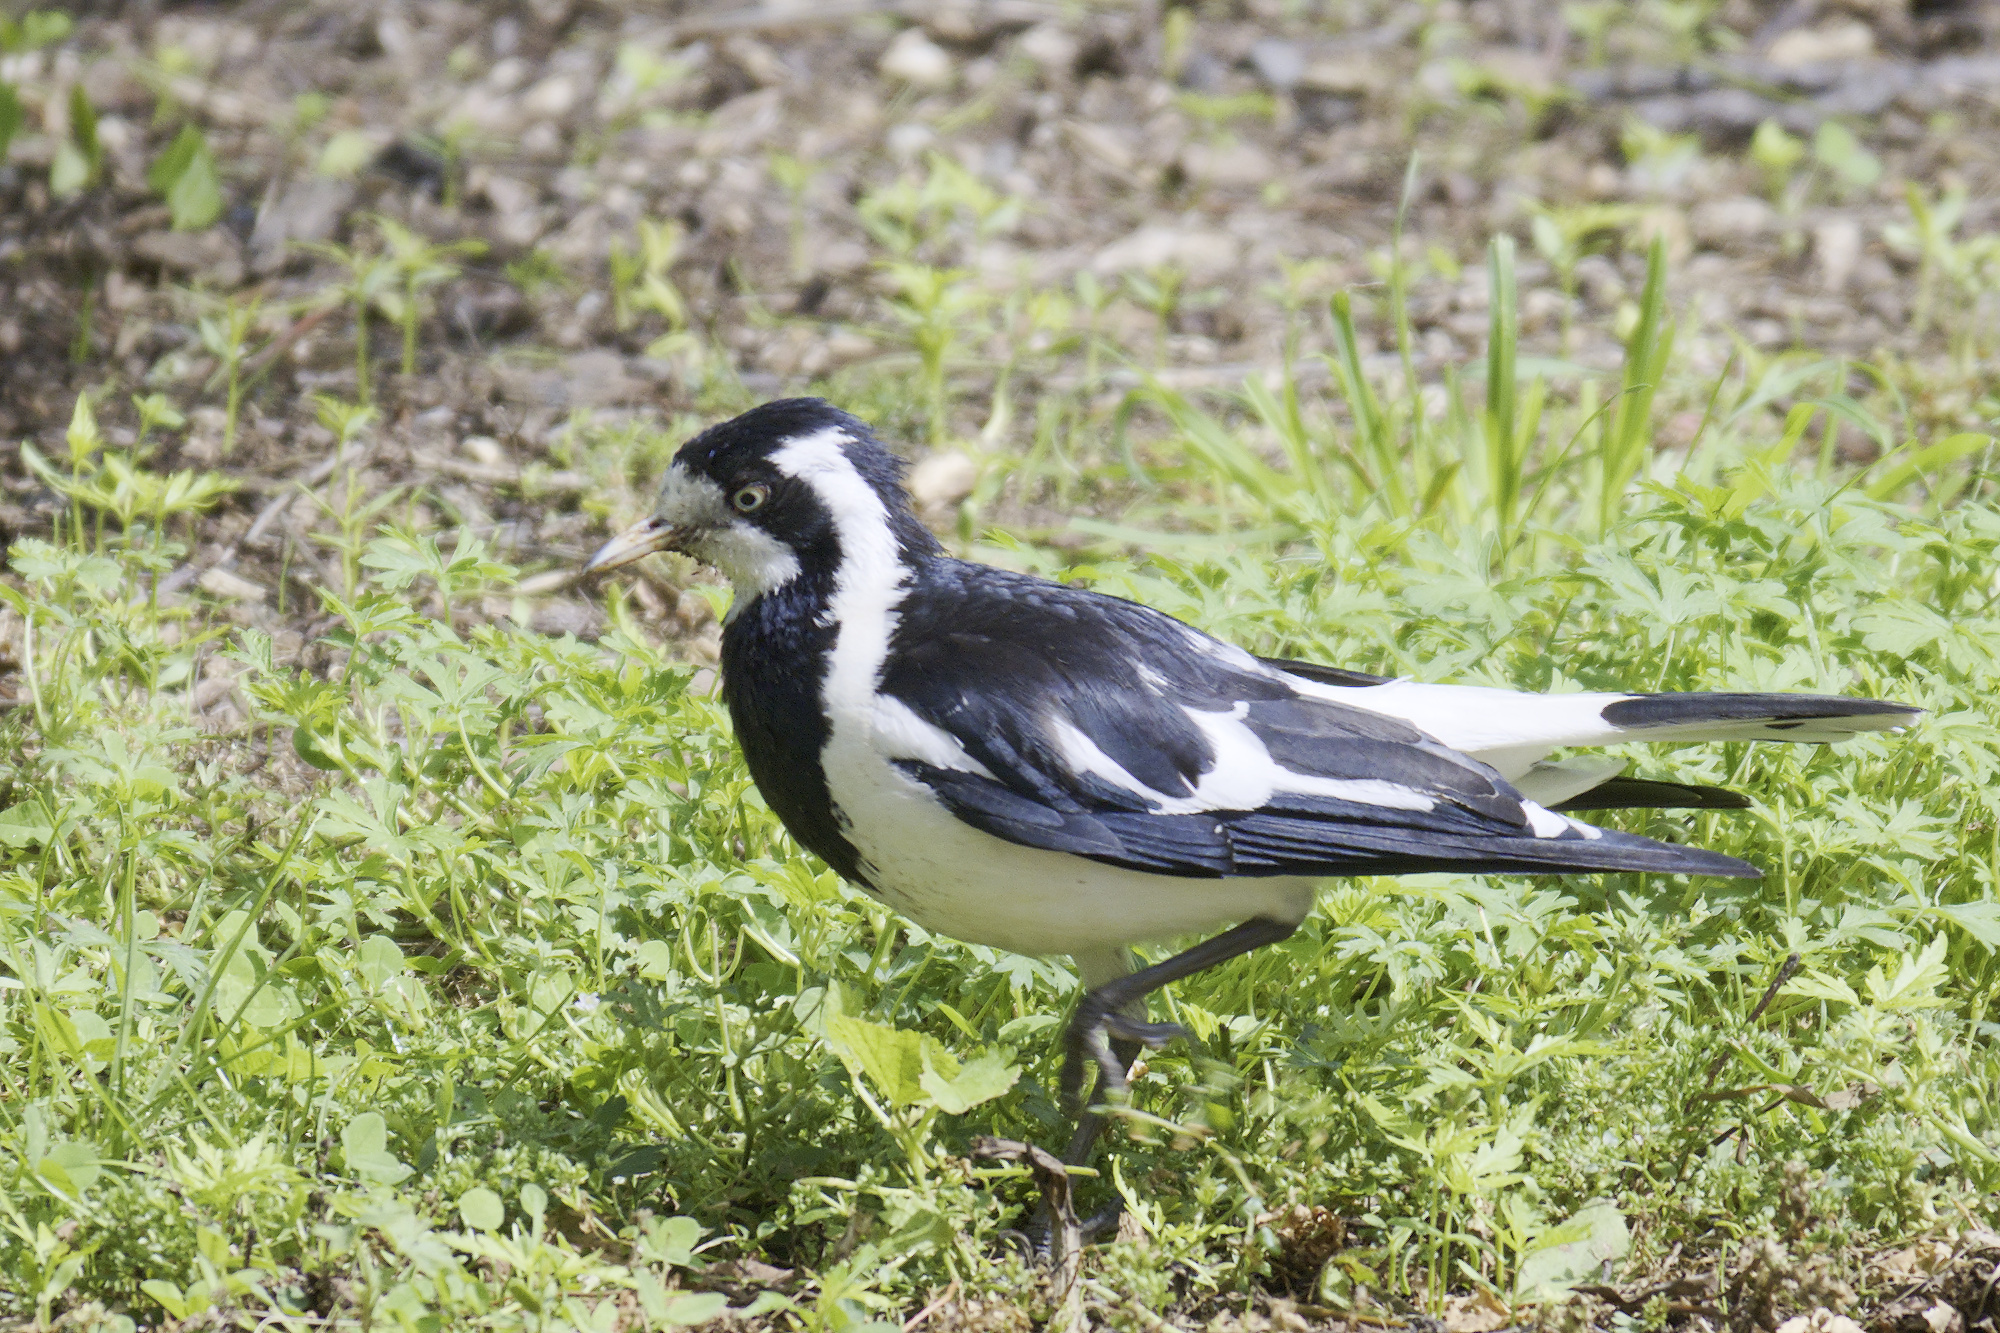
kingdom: Animalia
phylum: Chordata
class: Aves
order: Passeriformes
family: Monarchidae
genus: Grallina
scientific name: Grallina cyanoleuca
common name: Magpie-lark
